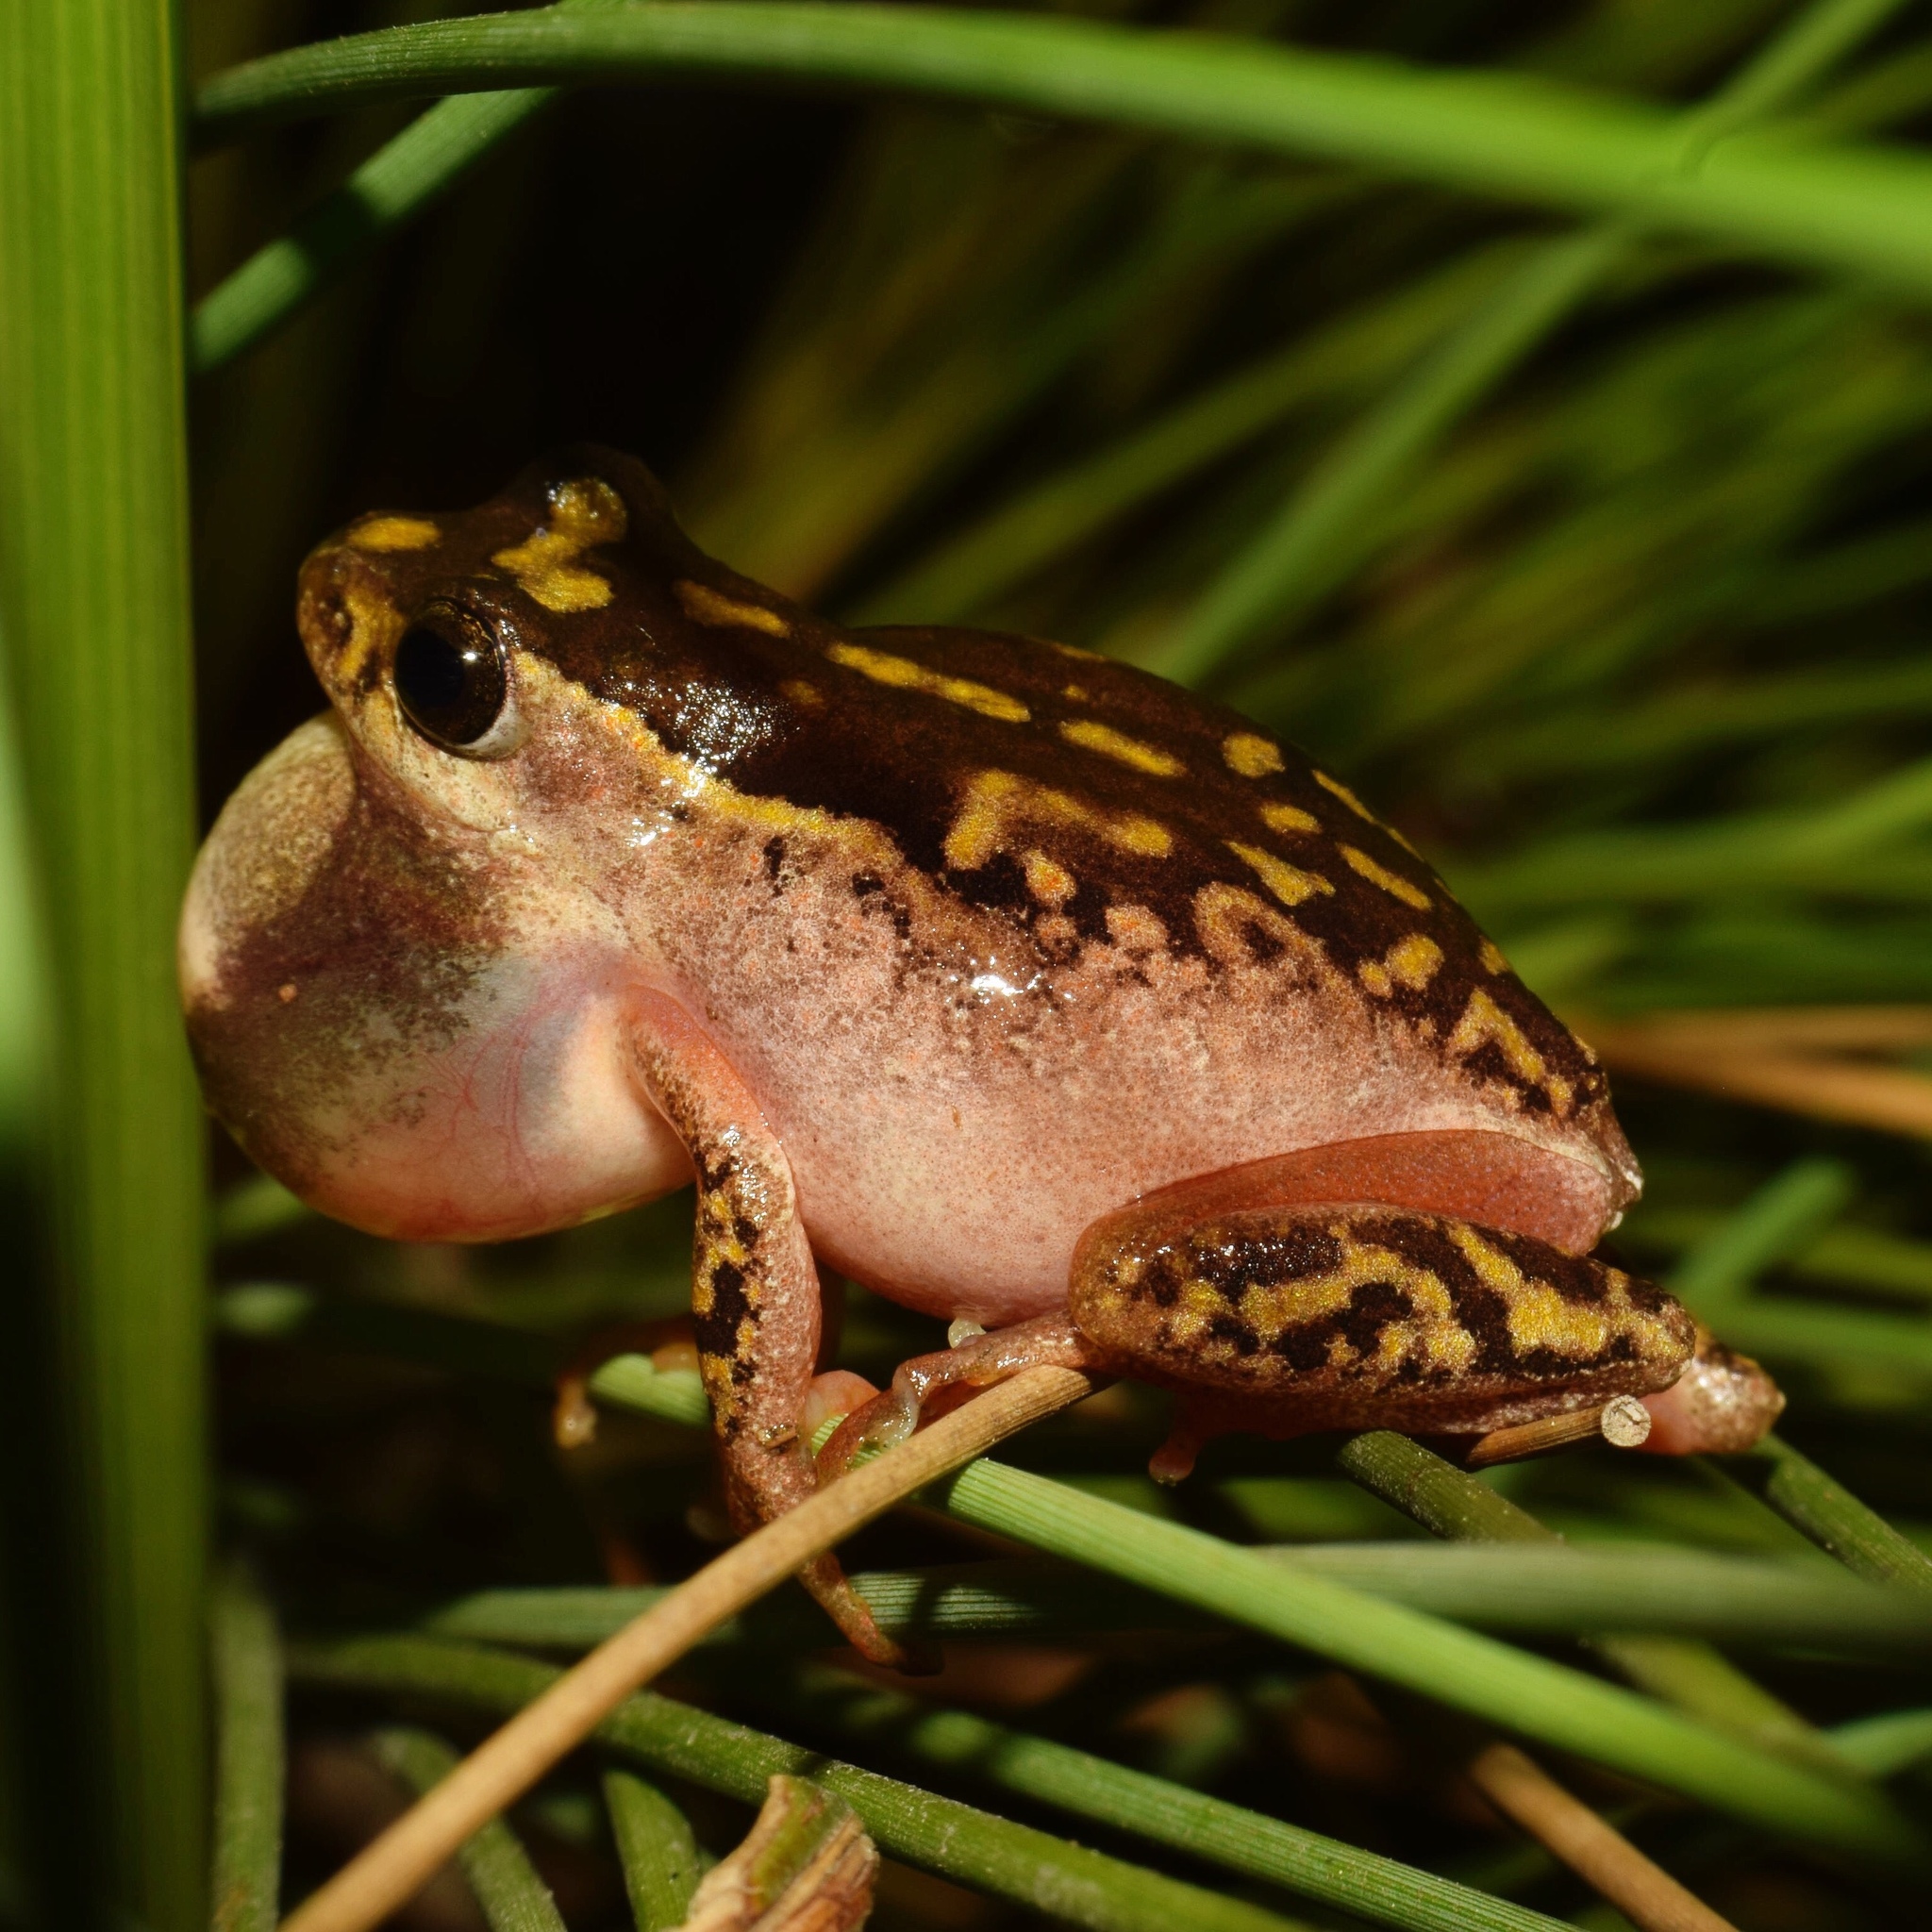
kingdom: Animalia
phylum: Chordata
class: Amphibia
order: Anura
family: Hyperoliidae
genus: Hyperolius
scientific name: Hyperolius marmoratus
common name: Painted reed frog
